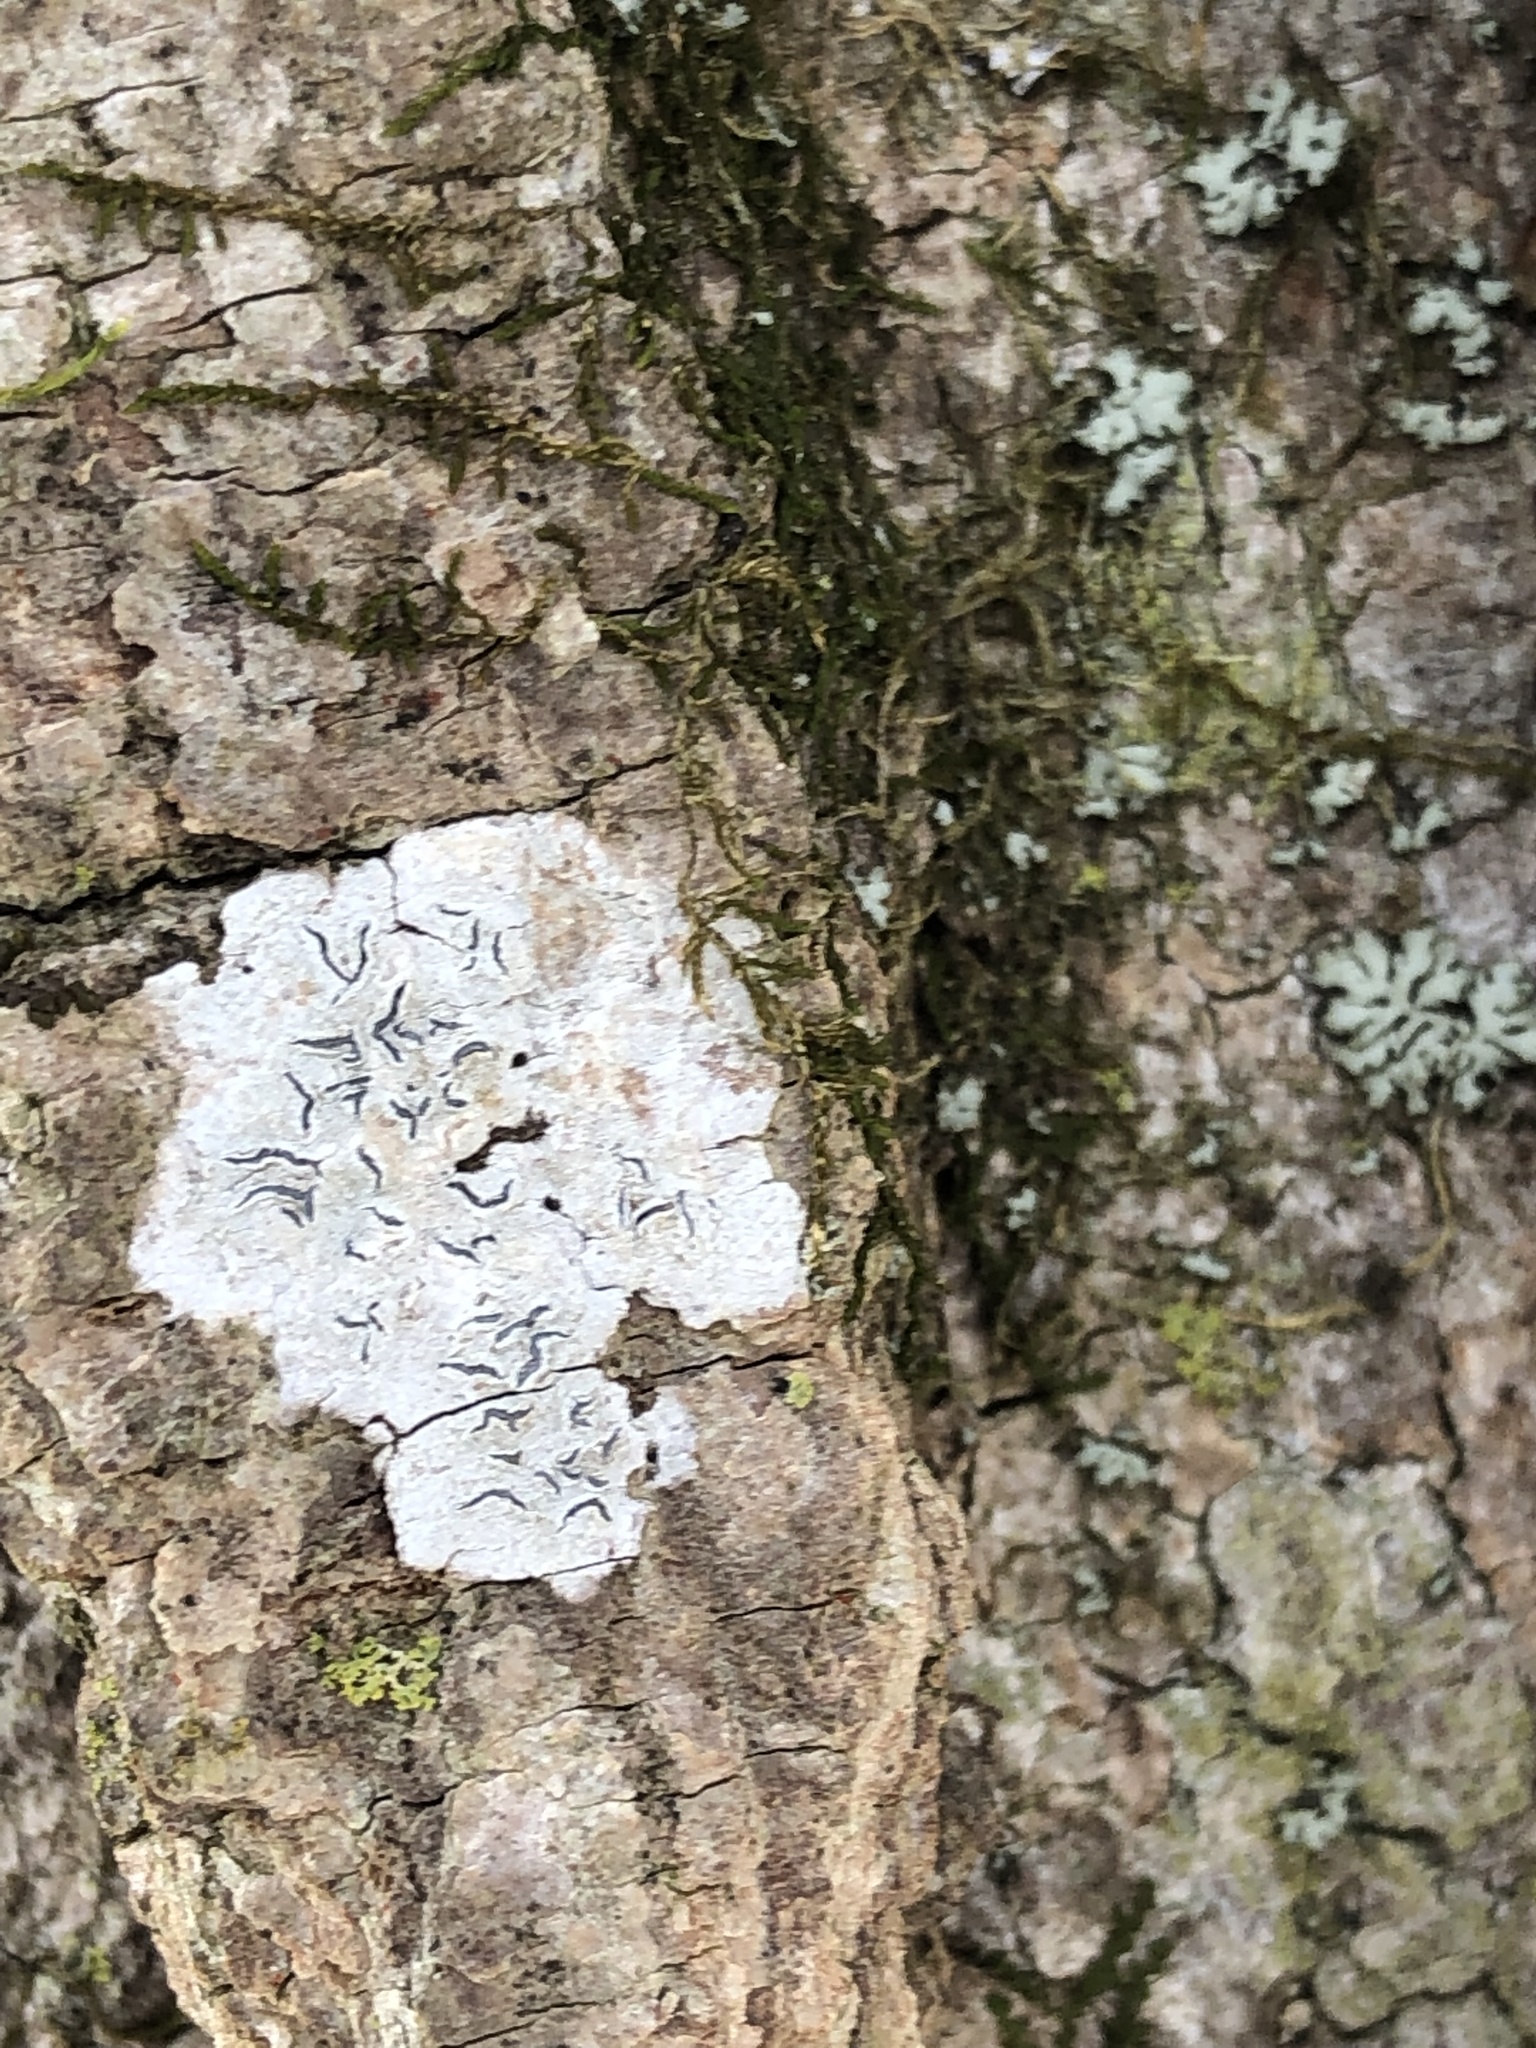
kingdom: Fungi
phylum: Ascomycota
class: Lecanoromycetes
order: Ostropales
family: Graphidaceae
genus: Graphis
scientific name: Graphis scripta
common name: Script lichen
